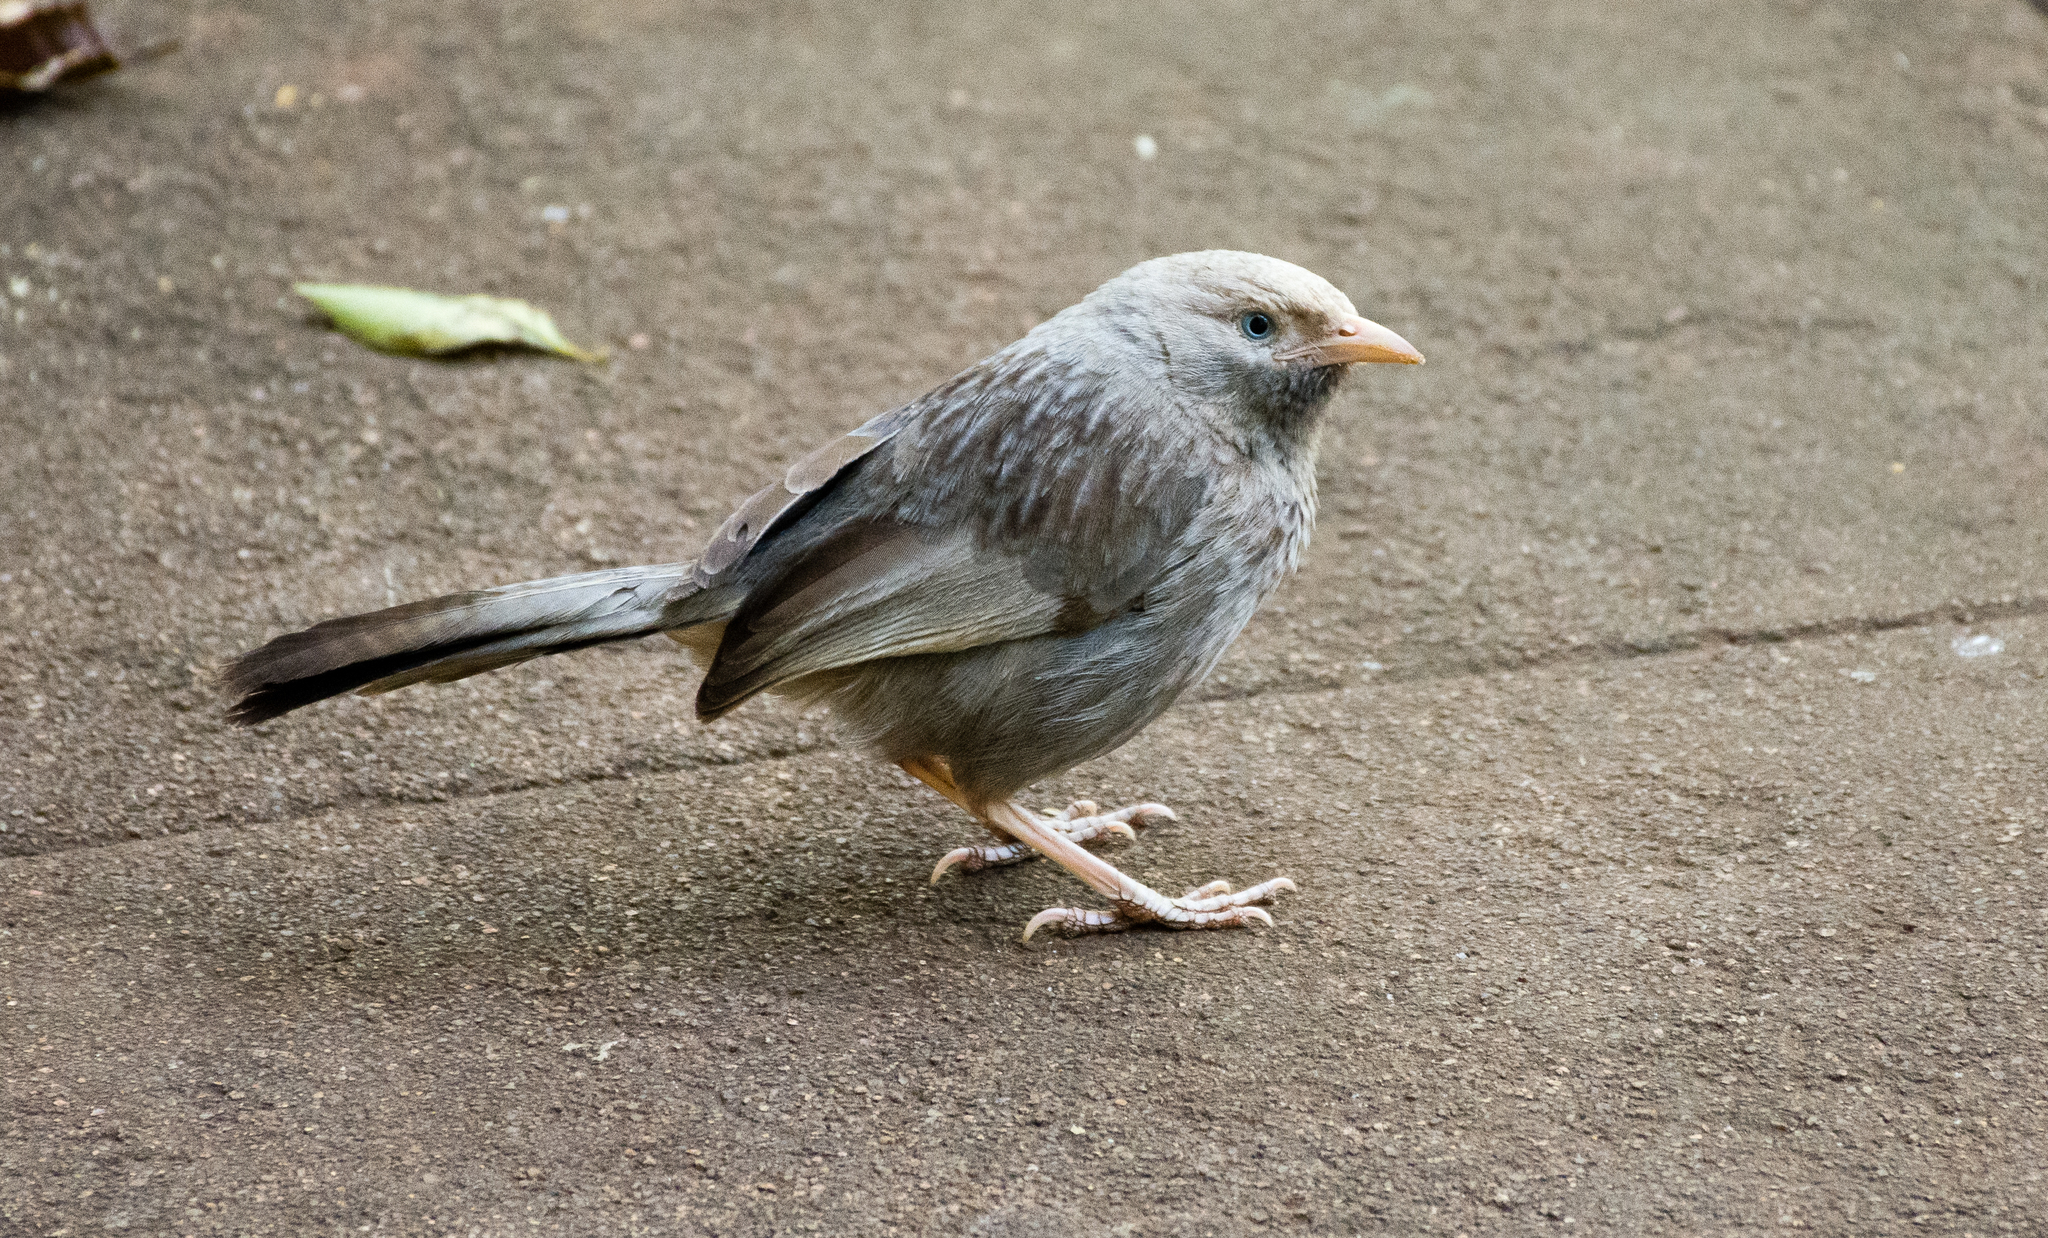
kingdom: Animalia
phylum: Chordata
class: Aves
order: Passeriformes
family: Leiothrichidae
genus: Turdoides
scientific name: Turdoides affinis
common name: Yellow-billed babbler
